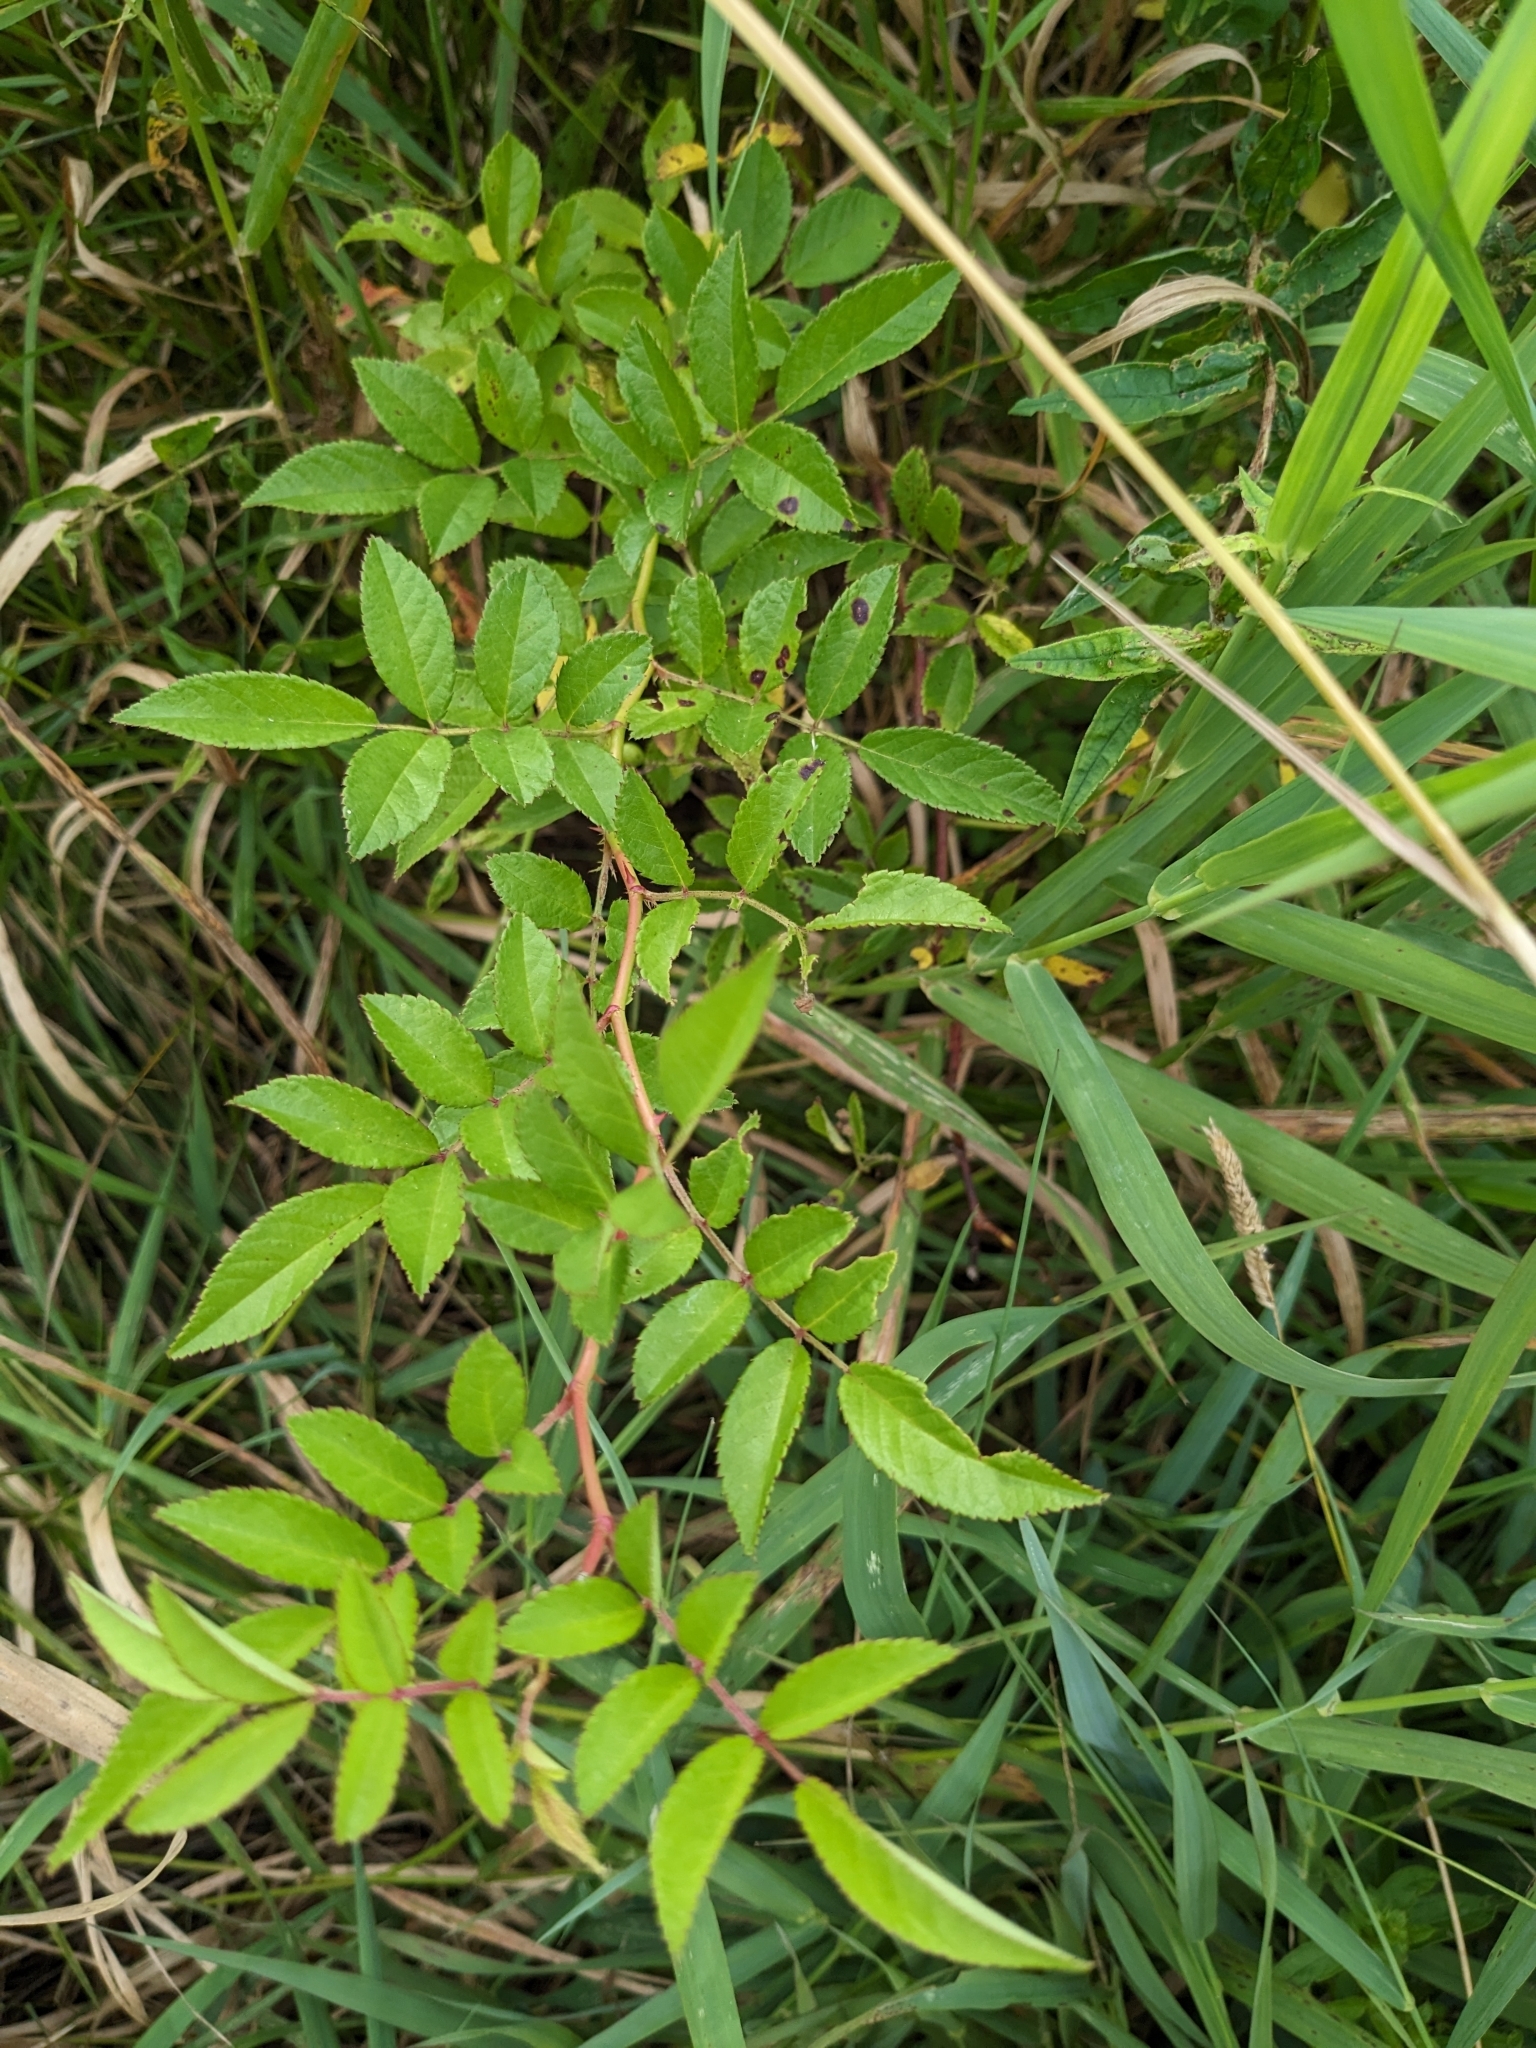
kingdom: Plantae
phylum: Tracheophyta
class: Magnoliopsida
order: Rosales
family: Rosaceae
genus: Rosa
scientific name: Rosa multiflora
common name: Multiflora rose
